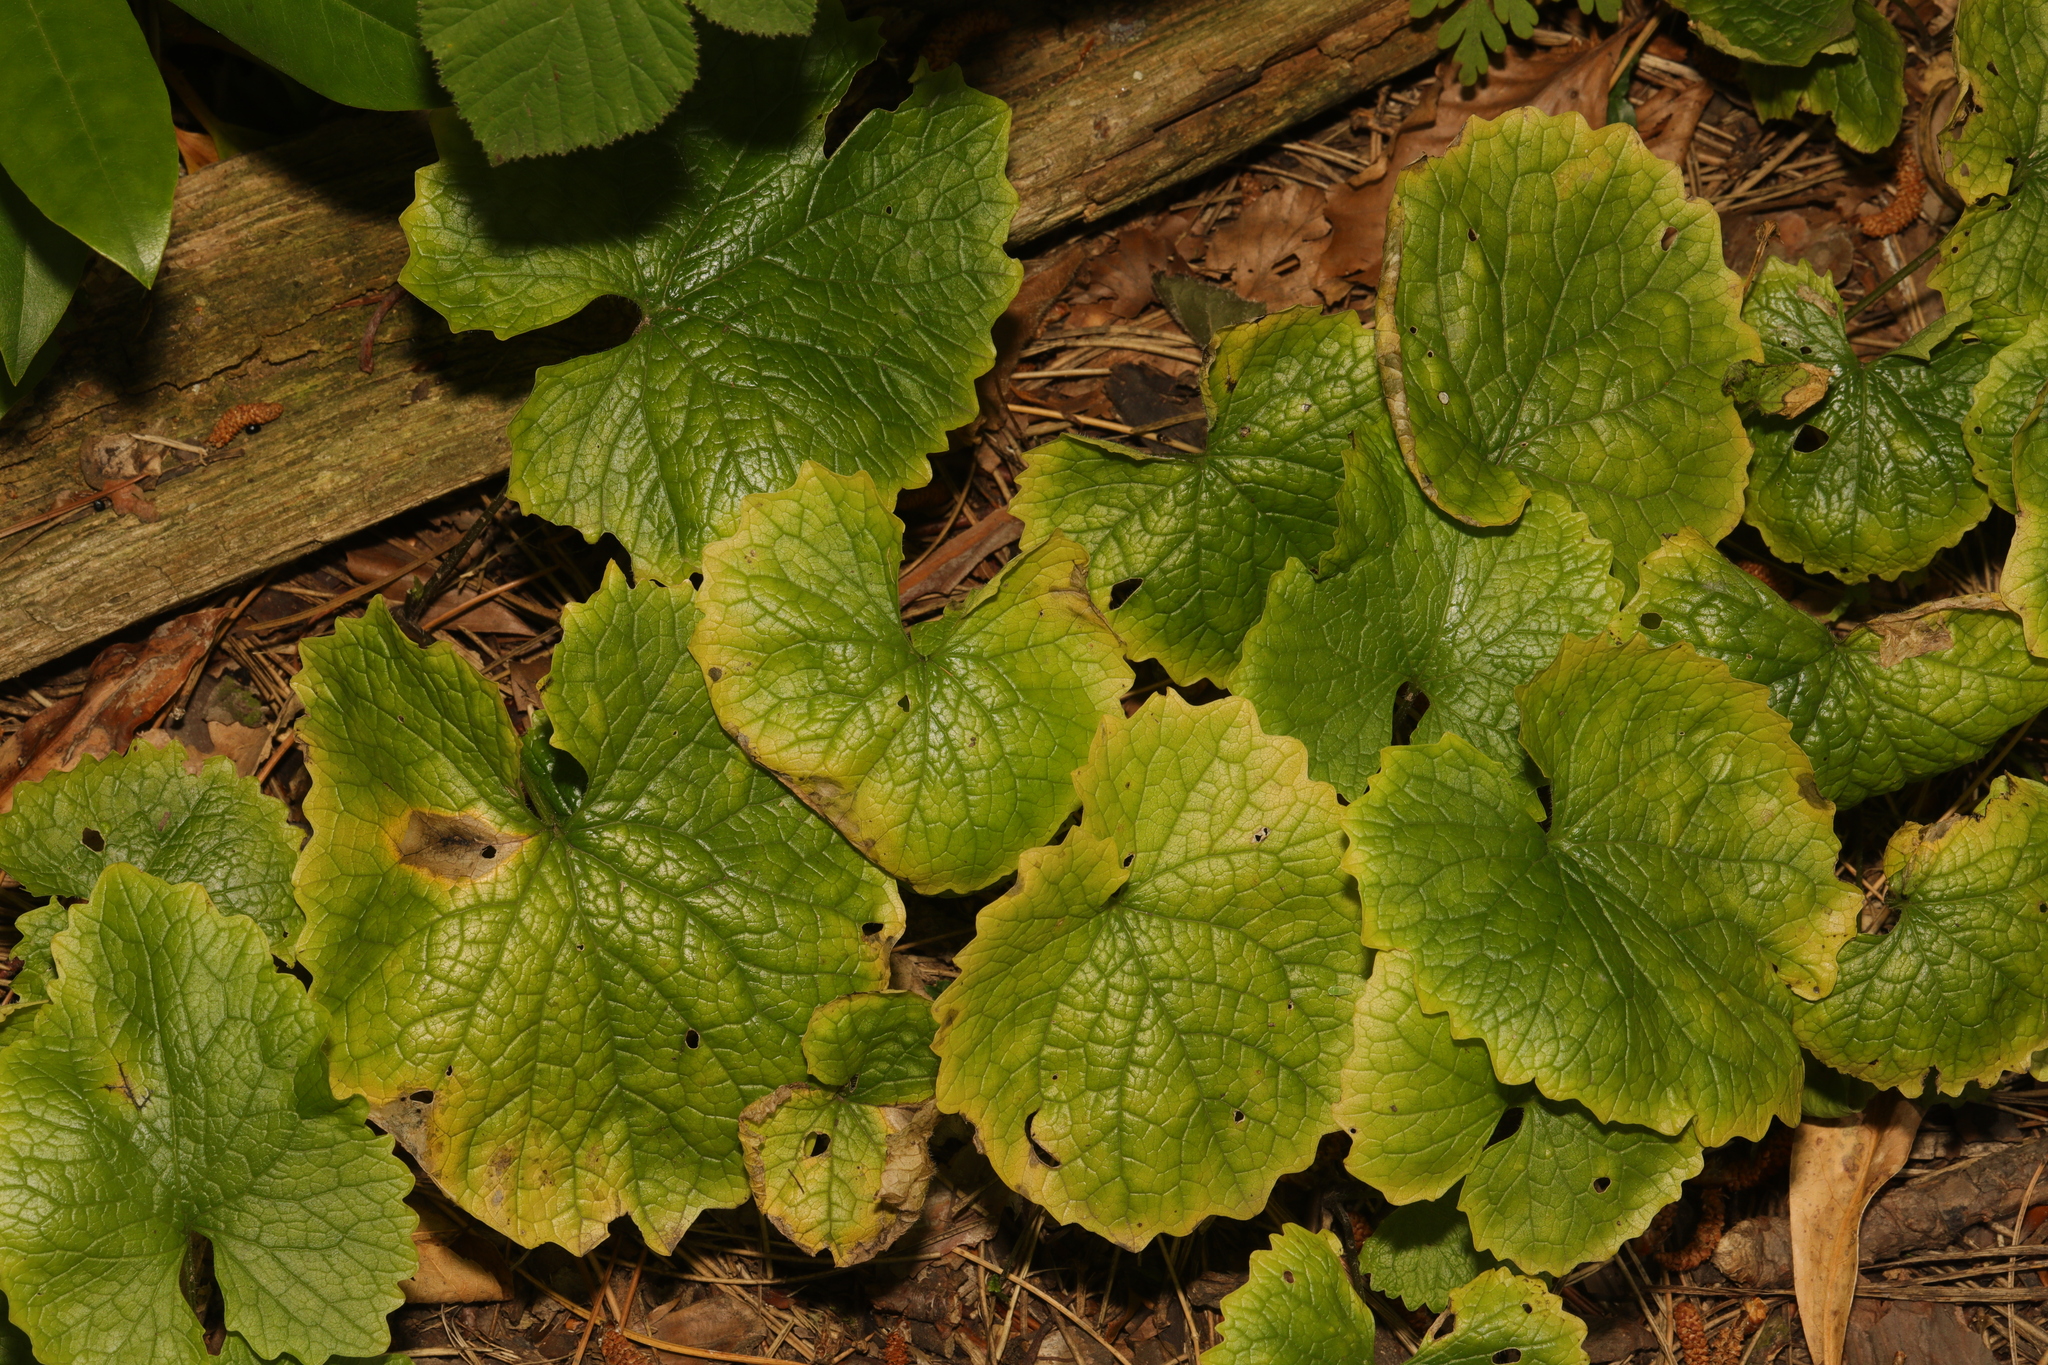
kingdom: Plantae
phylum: Tracheophyta
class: Magnoliopsida
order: Brassicales
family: Brassicaceae
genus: Alliaria
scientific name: Alliaria petiolata
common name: Garlic mustard
